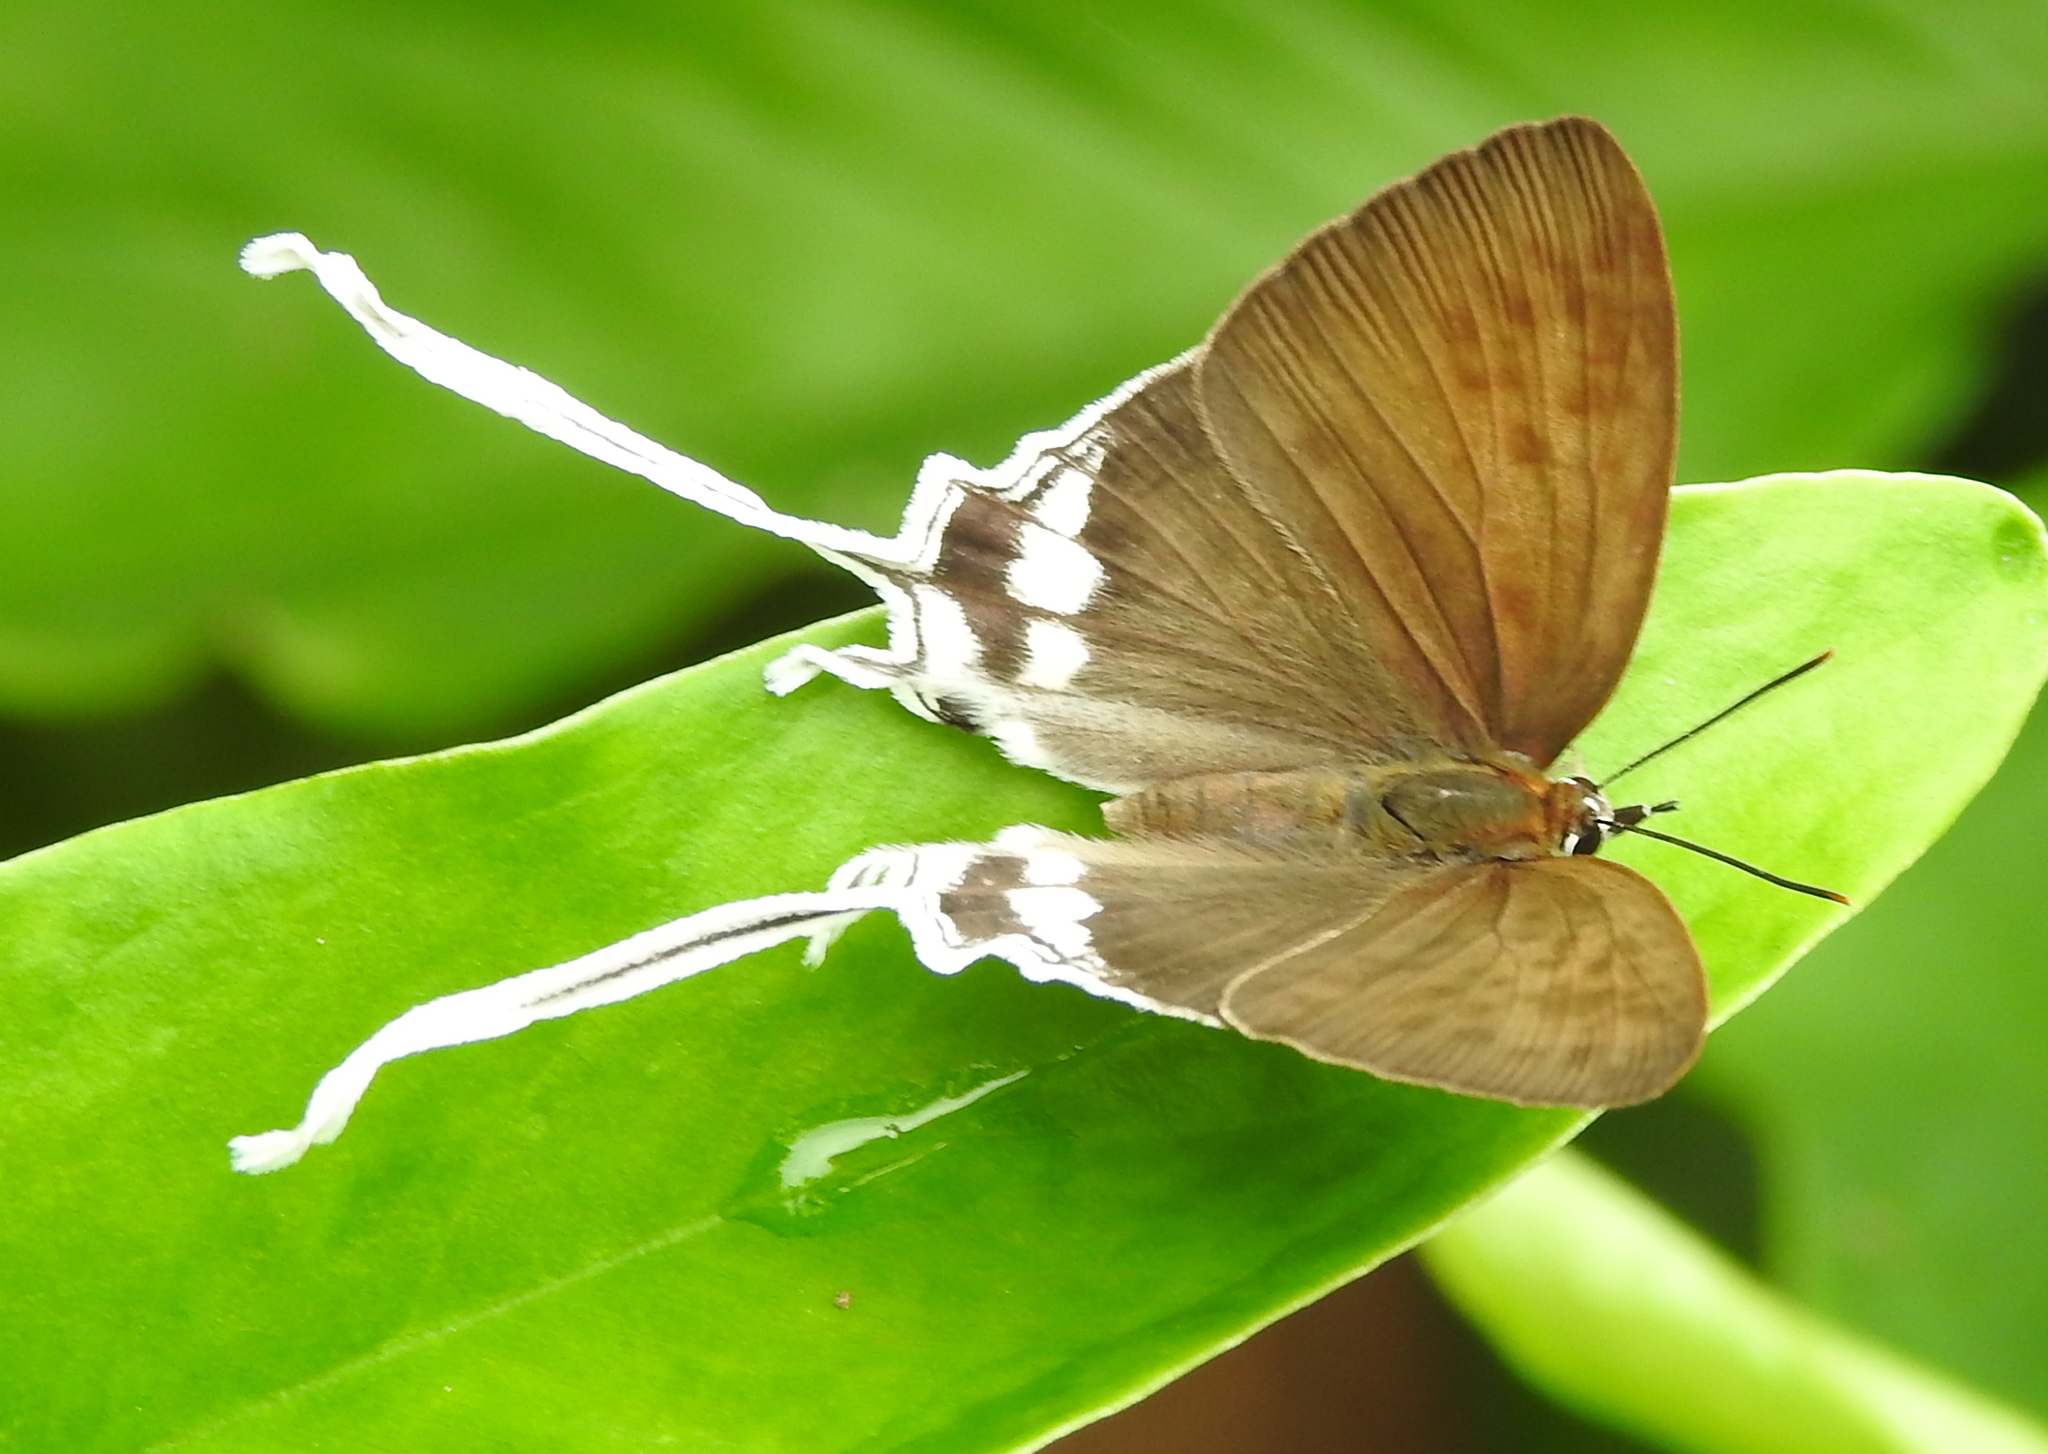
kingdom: Animalia
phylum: Arthropoda
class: Insecta
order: Lepidoptera
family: Lycaenidae
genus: Cheritra
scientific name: Cheritra freja
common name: Common imperial
